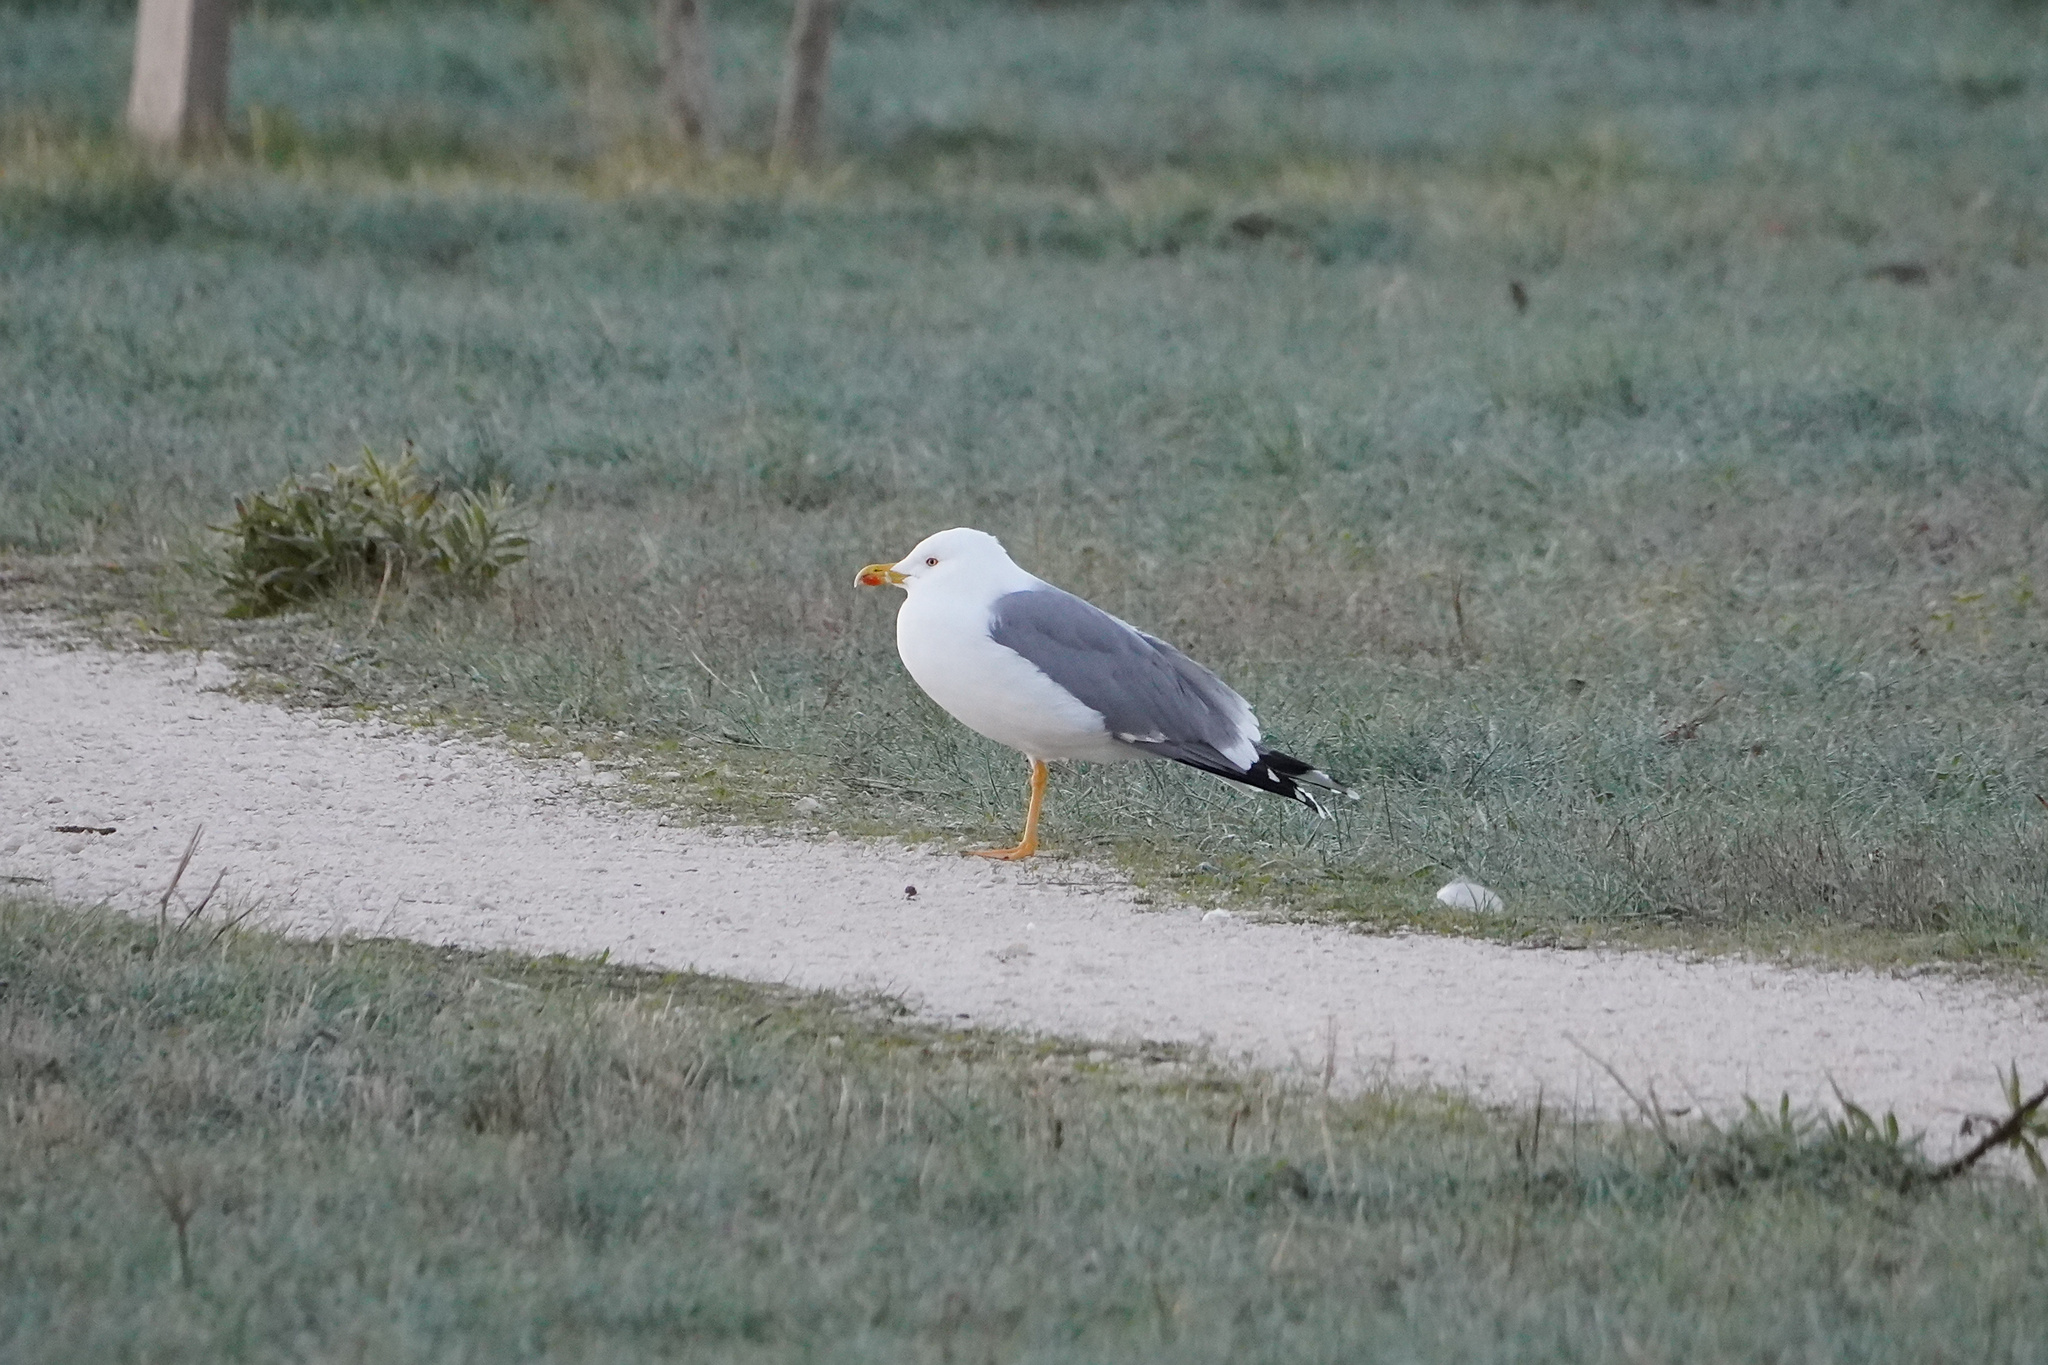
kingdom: Animalia
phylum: Chordata
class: Aves
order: Charadriiformes
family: Laridae
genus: Larus
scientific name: Larus michahellis
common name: Yellow-legged gull
